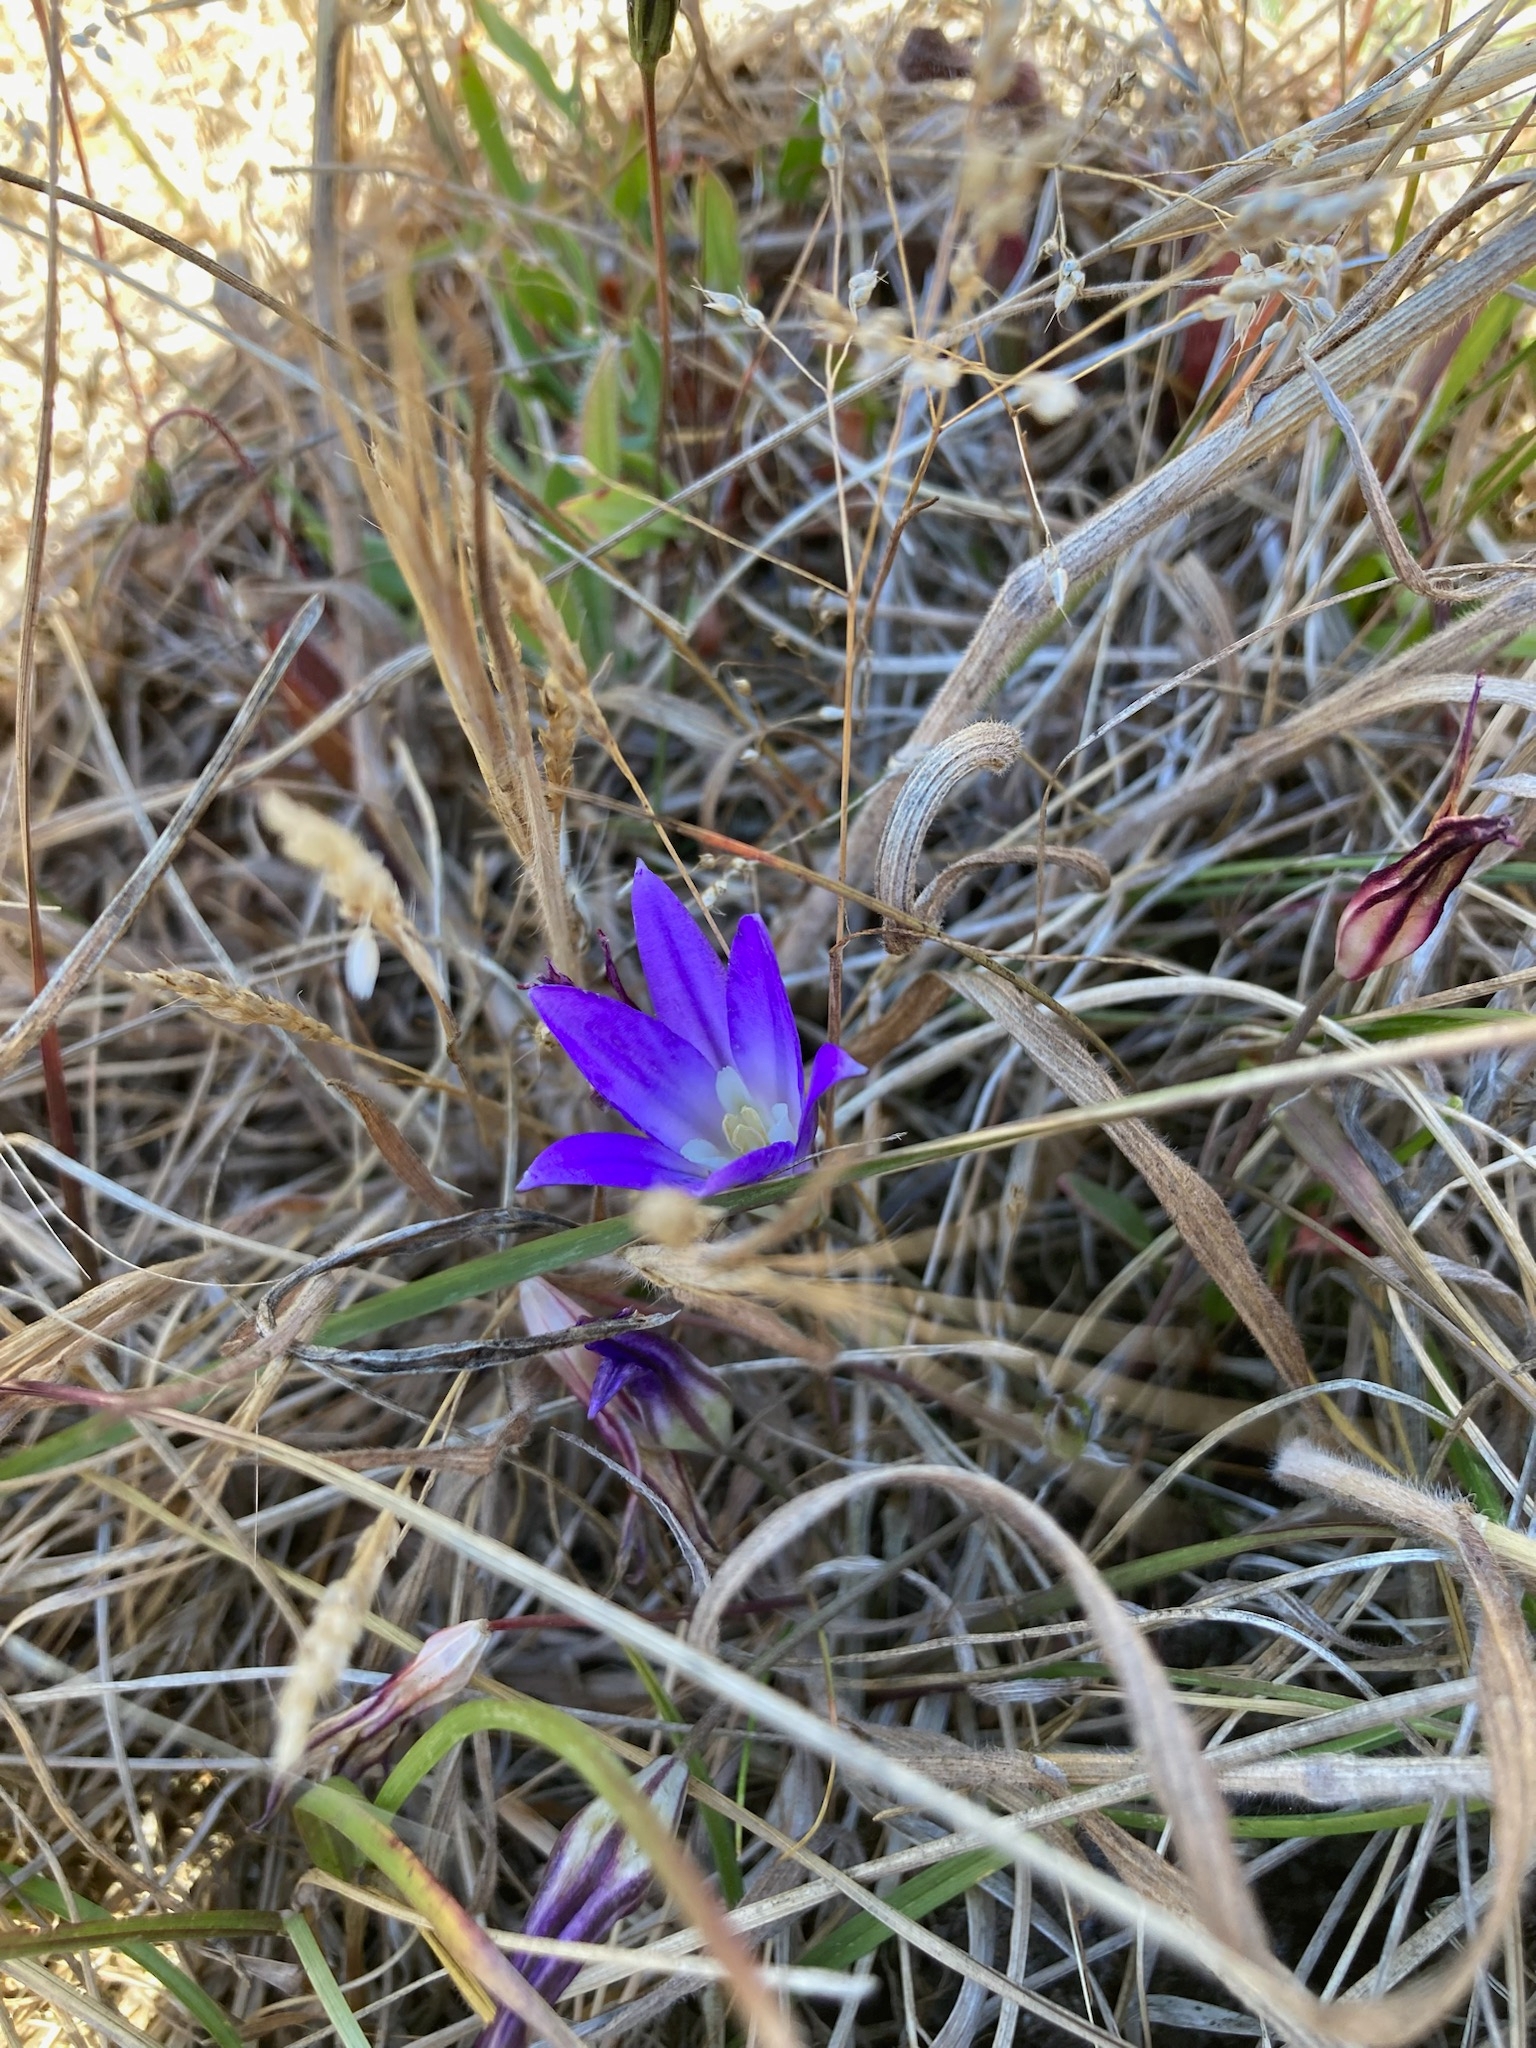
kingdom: Plantae
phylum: Tracheophyta
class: Liliopsida
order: Asparagales
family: Asparagaceae
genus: Brodiaea
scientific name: Brodiaea terrestris
